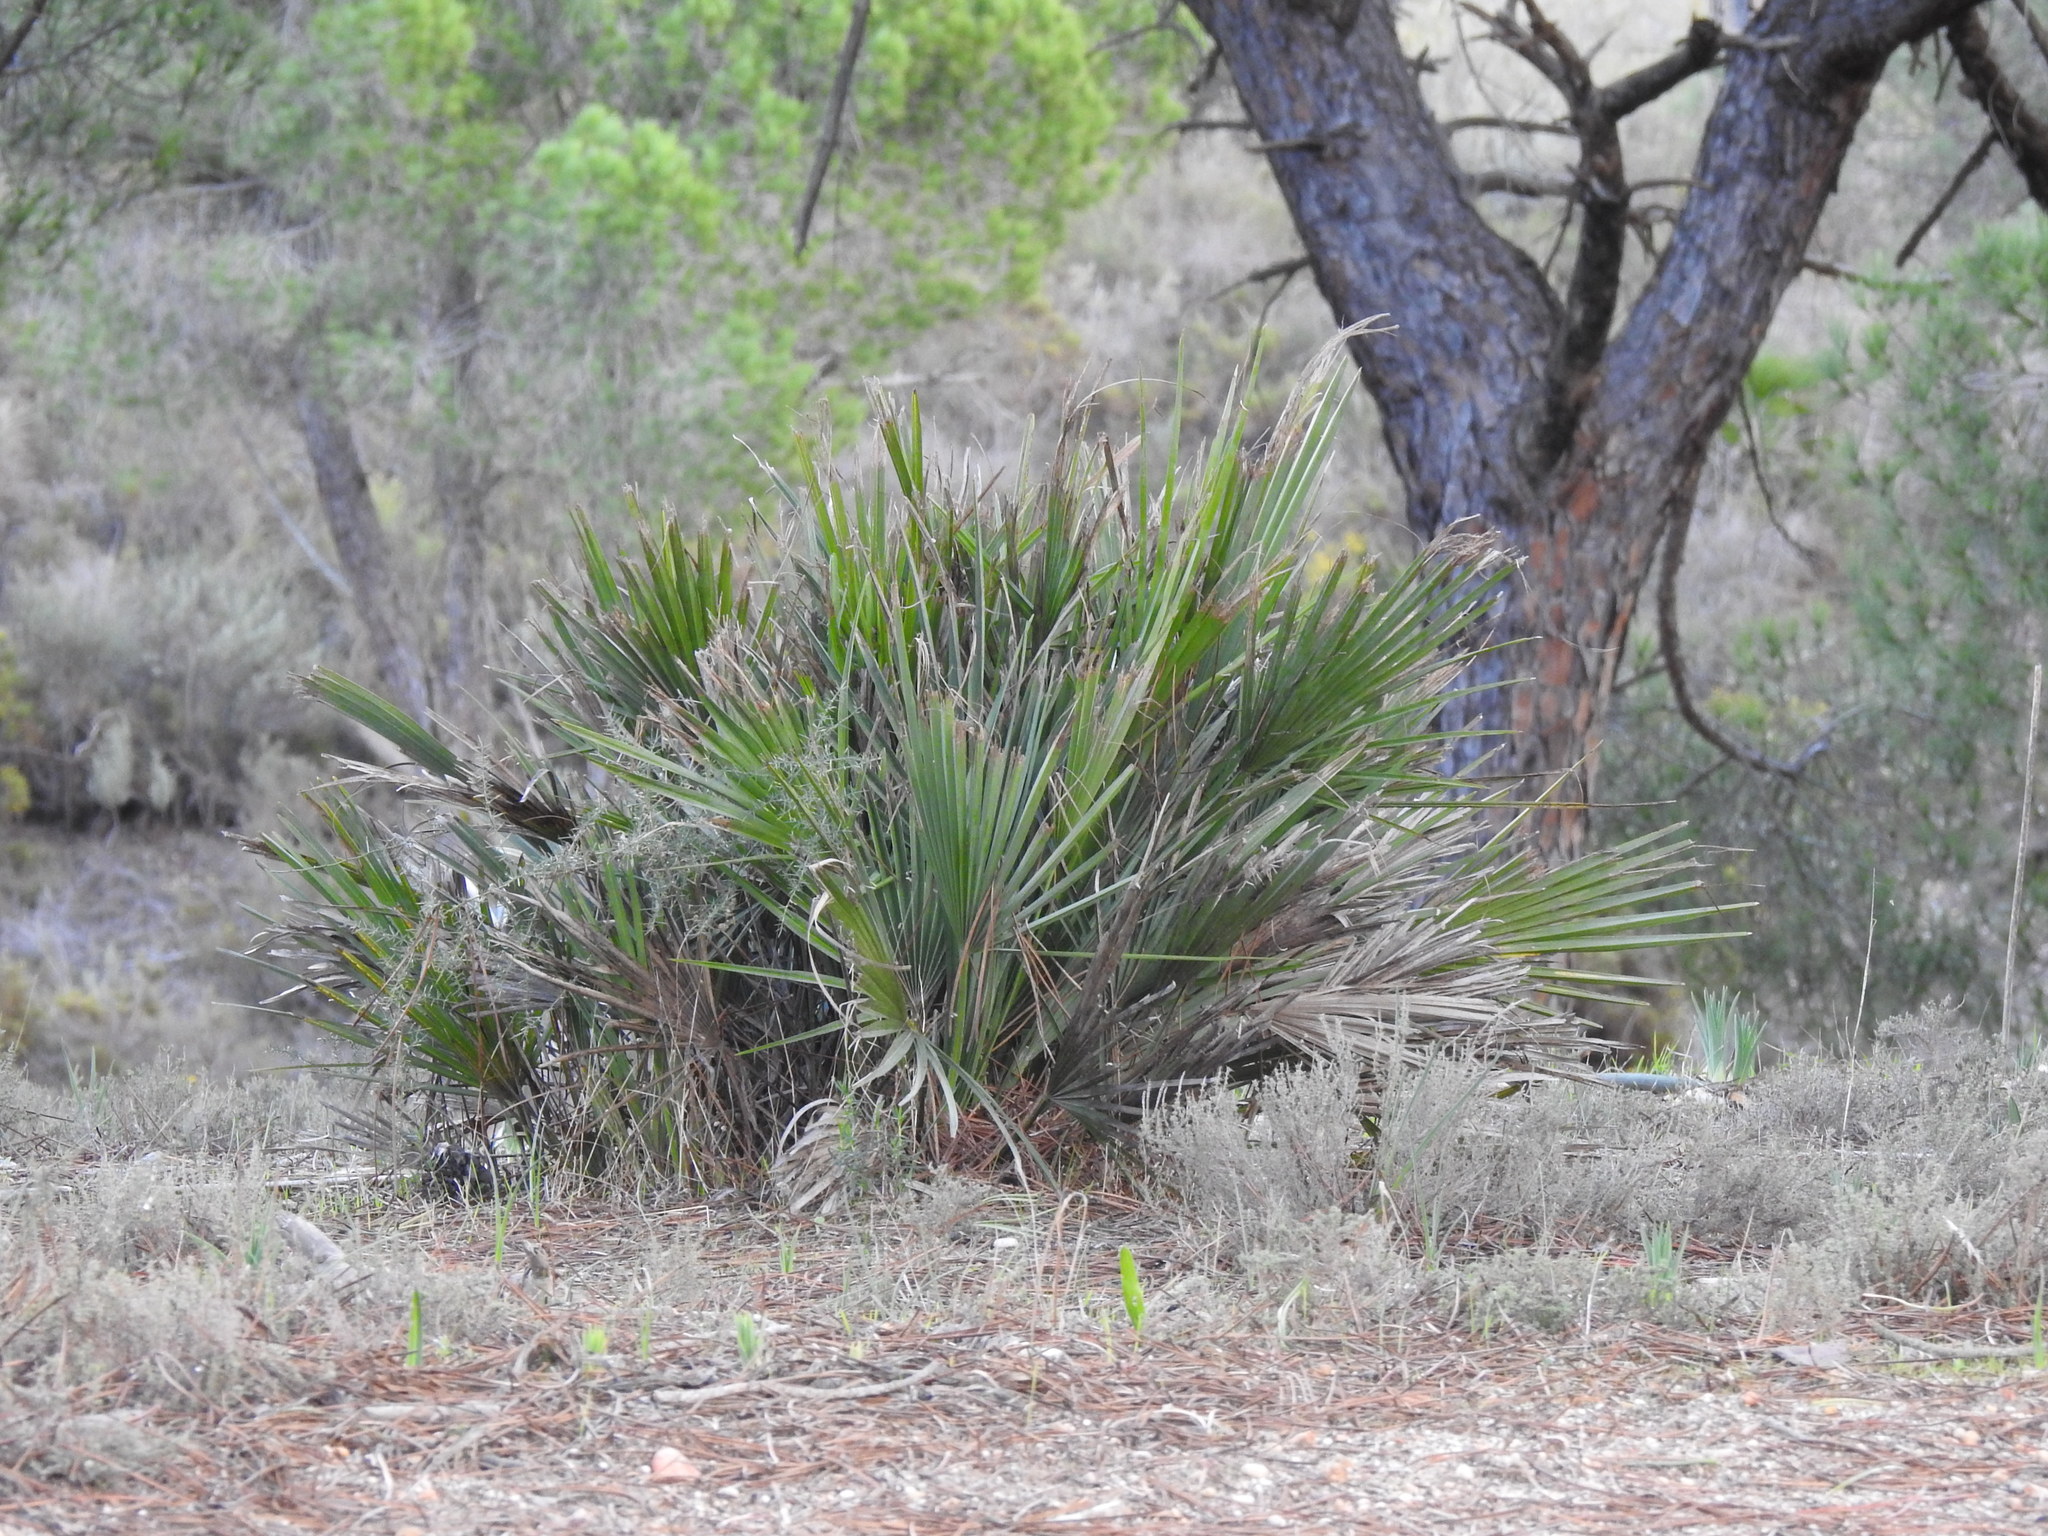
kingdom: Plantae
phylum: Tracheophyta
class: Liliopsida
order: Arecales
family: Arecaceae
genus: Chamaerops
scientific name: Chamaerops humilis
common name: Dwarf fan palm
